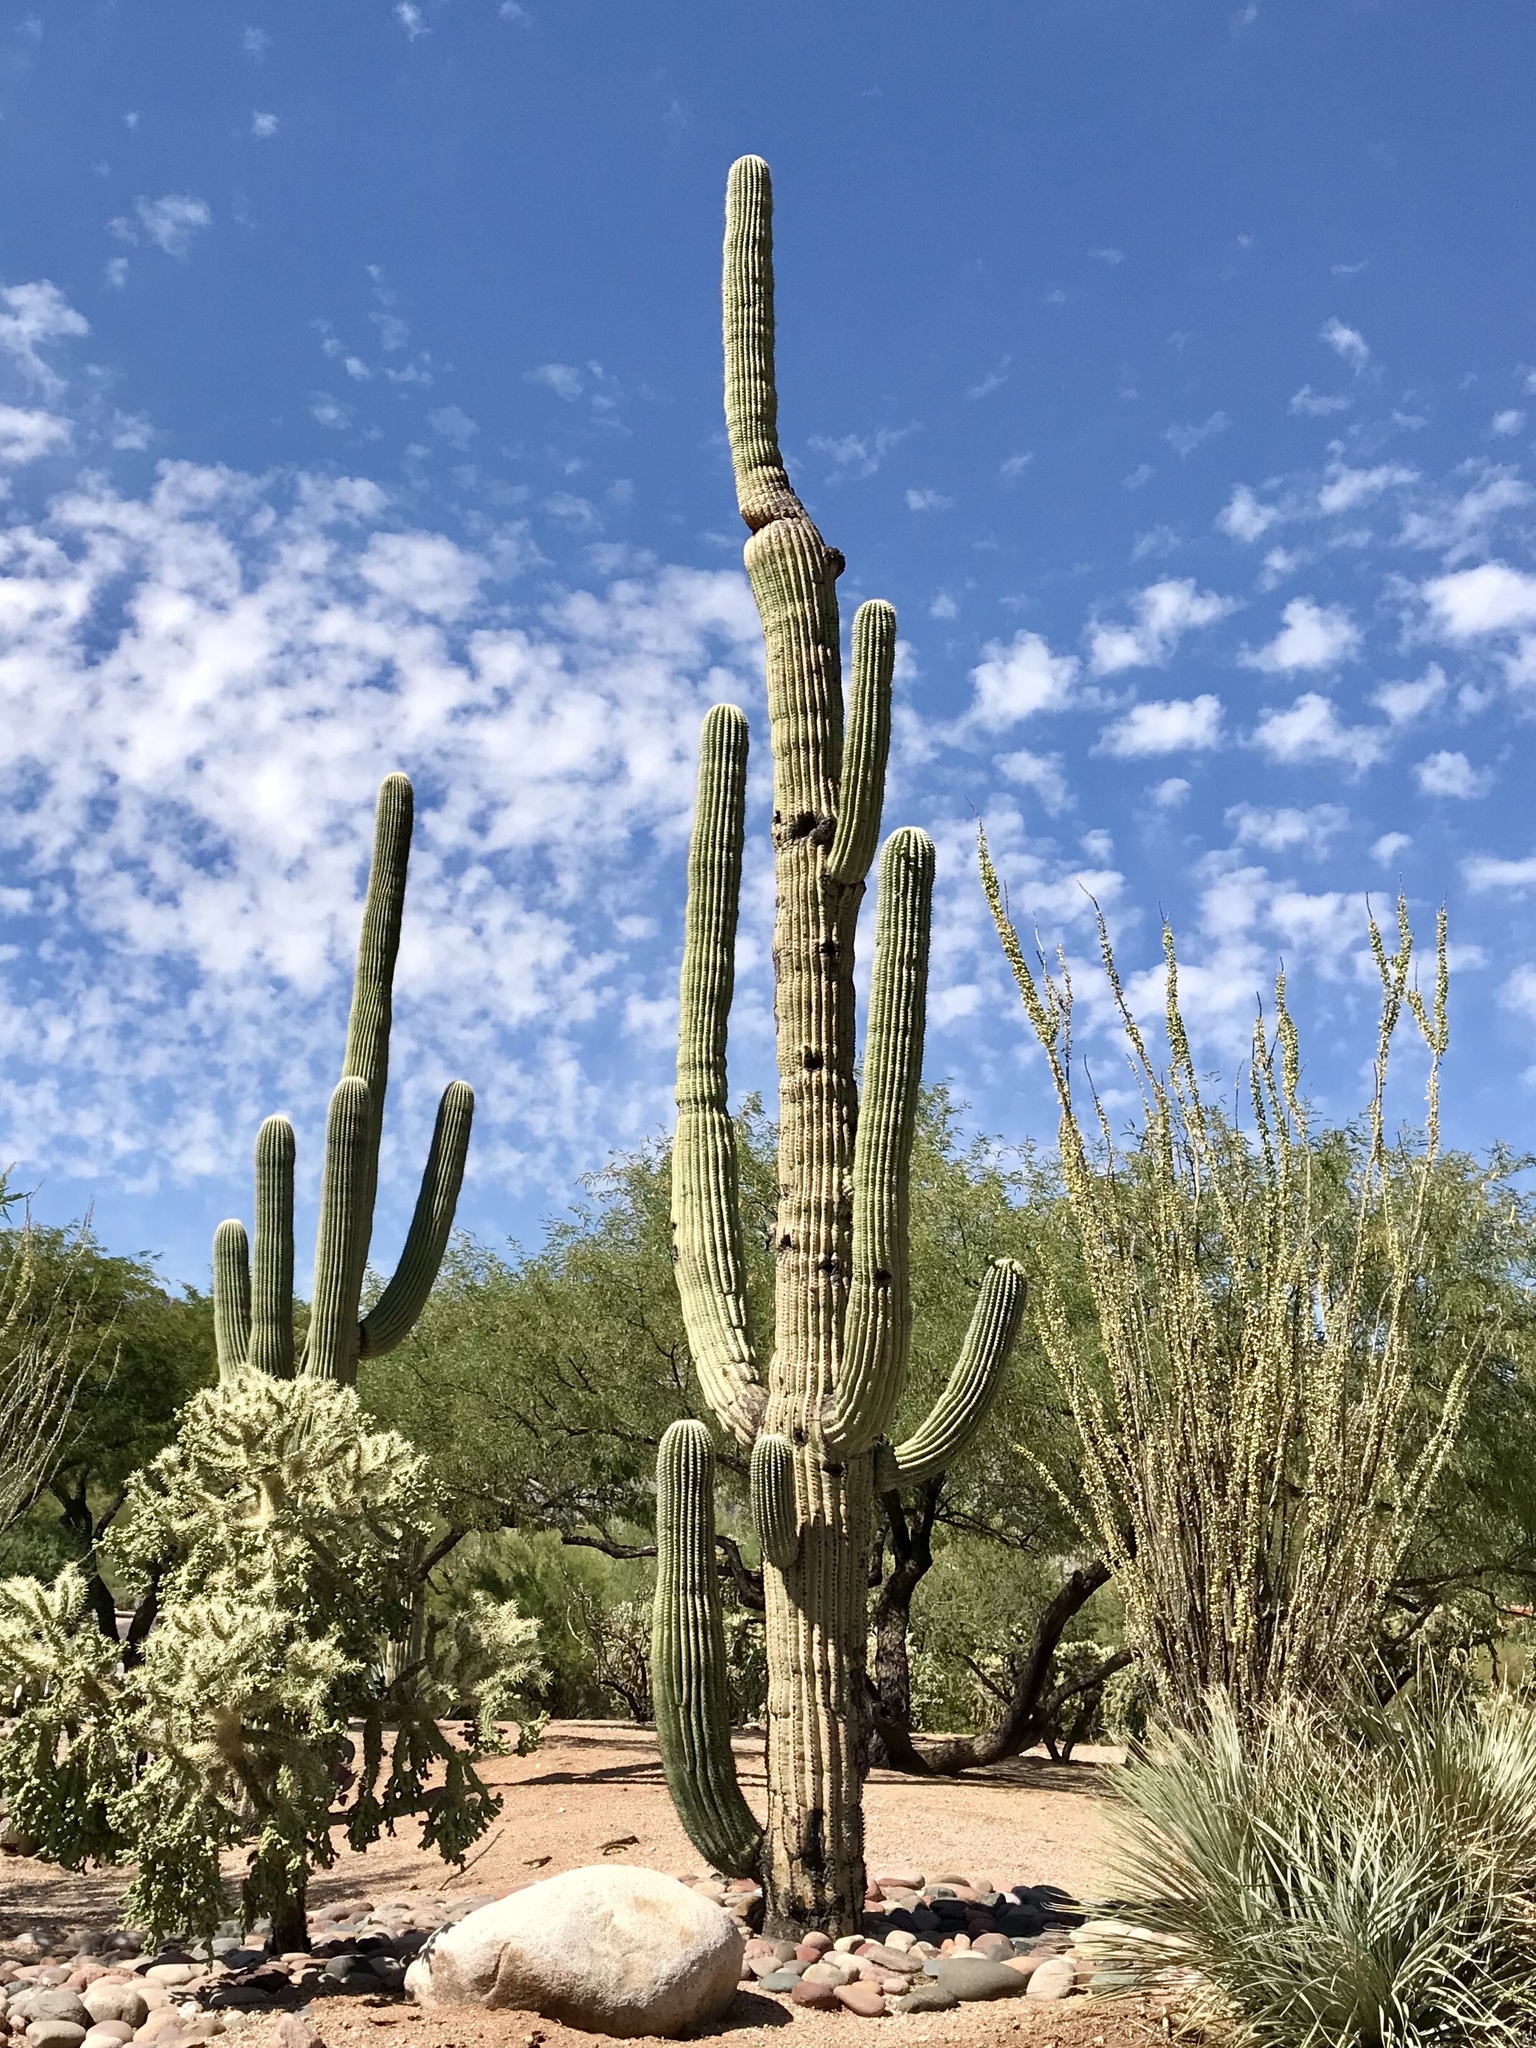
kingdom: Plantae
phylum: Tracheophyta
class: Magnoliopsida
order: Caryophyllales
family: Cactaceae
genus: Carnegiea
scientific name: Carnegiea gigantea
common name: Saguaro
